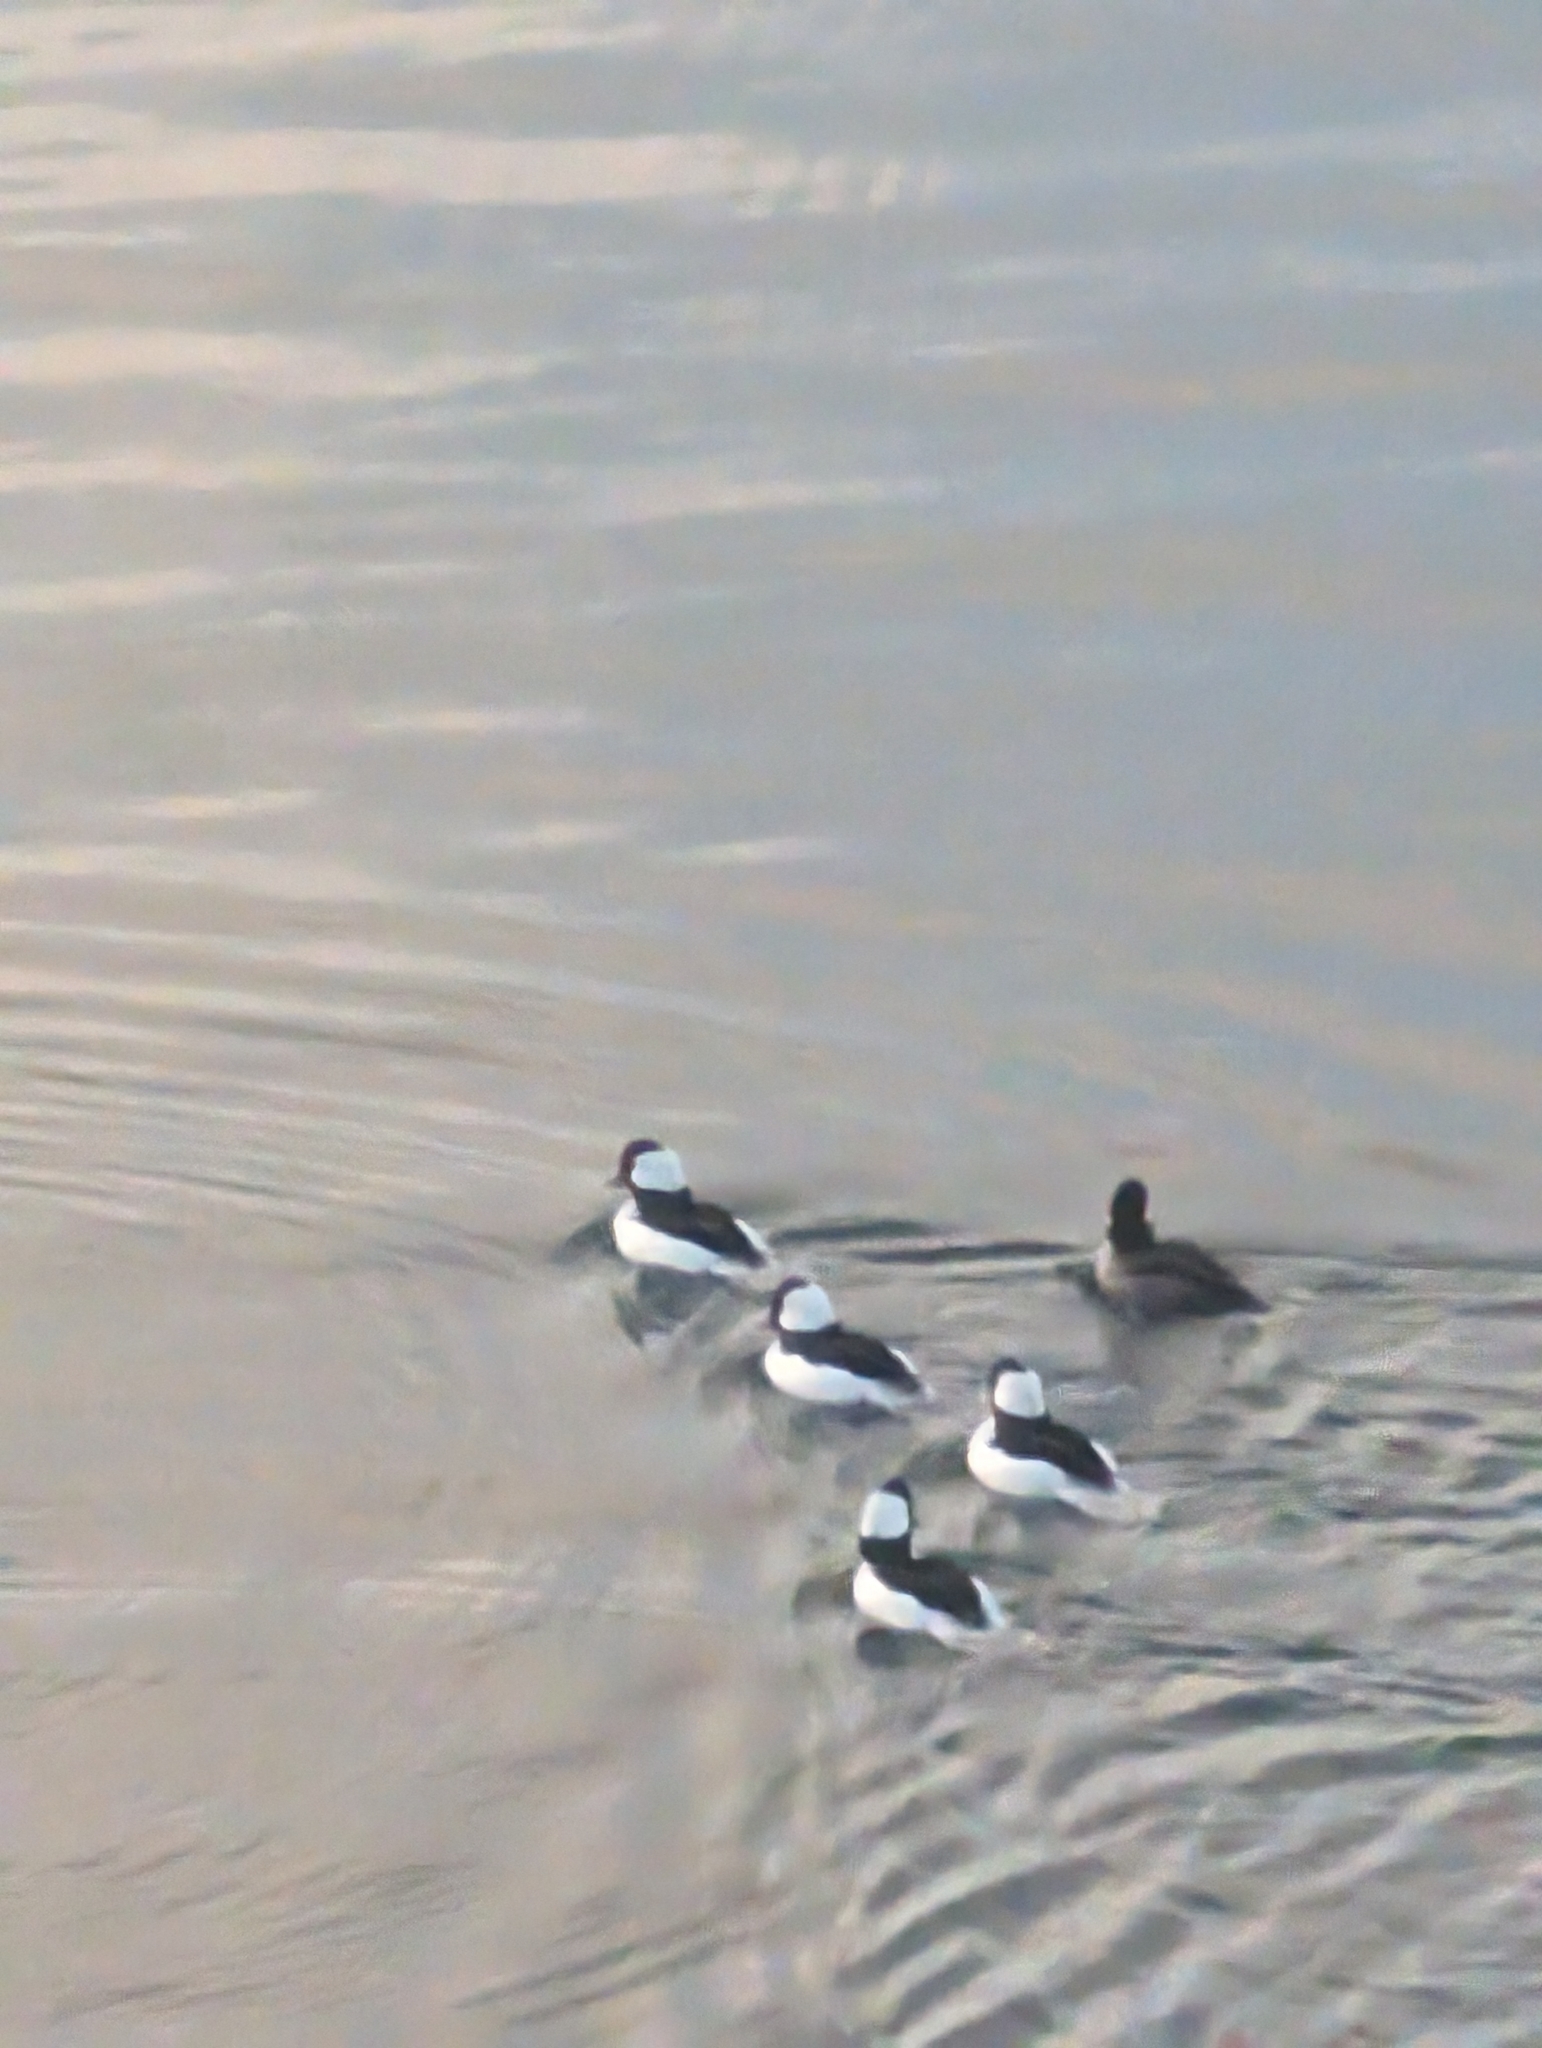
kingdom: Animalia
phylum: Chordata
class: Aves
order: Anseriformes
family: Anatidae
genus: Bucephala
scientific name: Bucephala albeola
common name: Bufflehead
